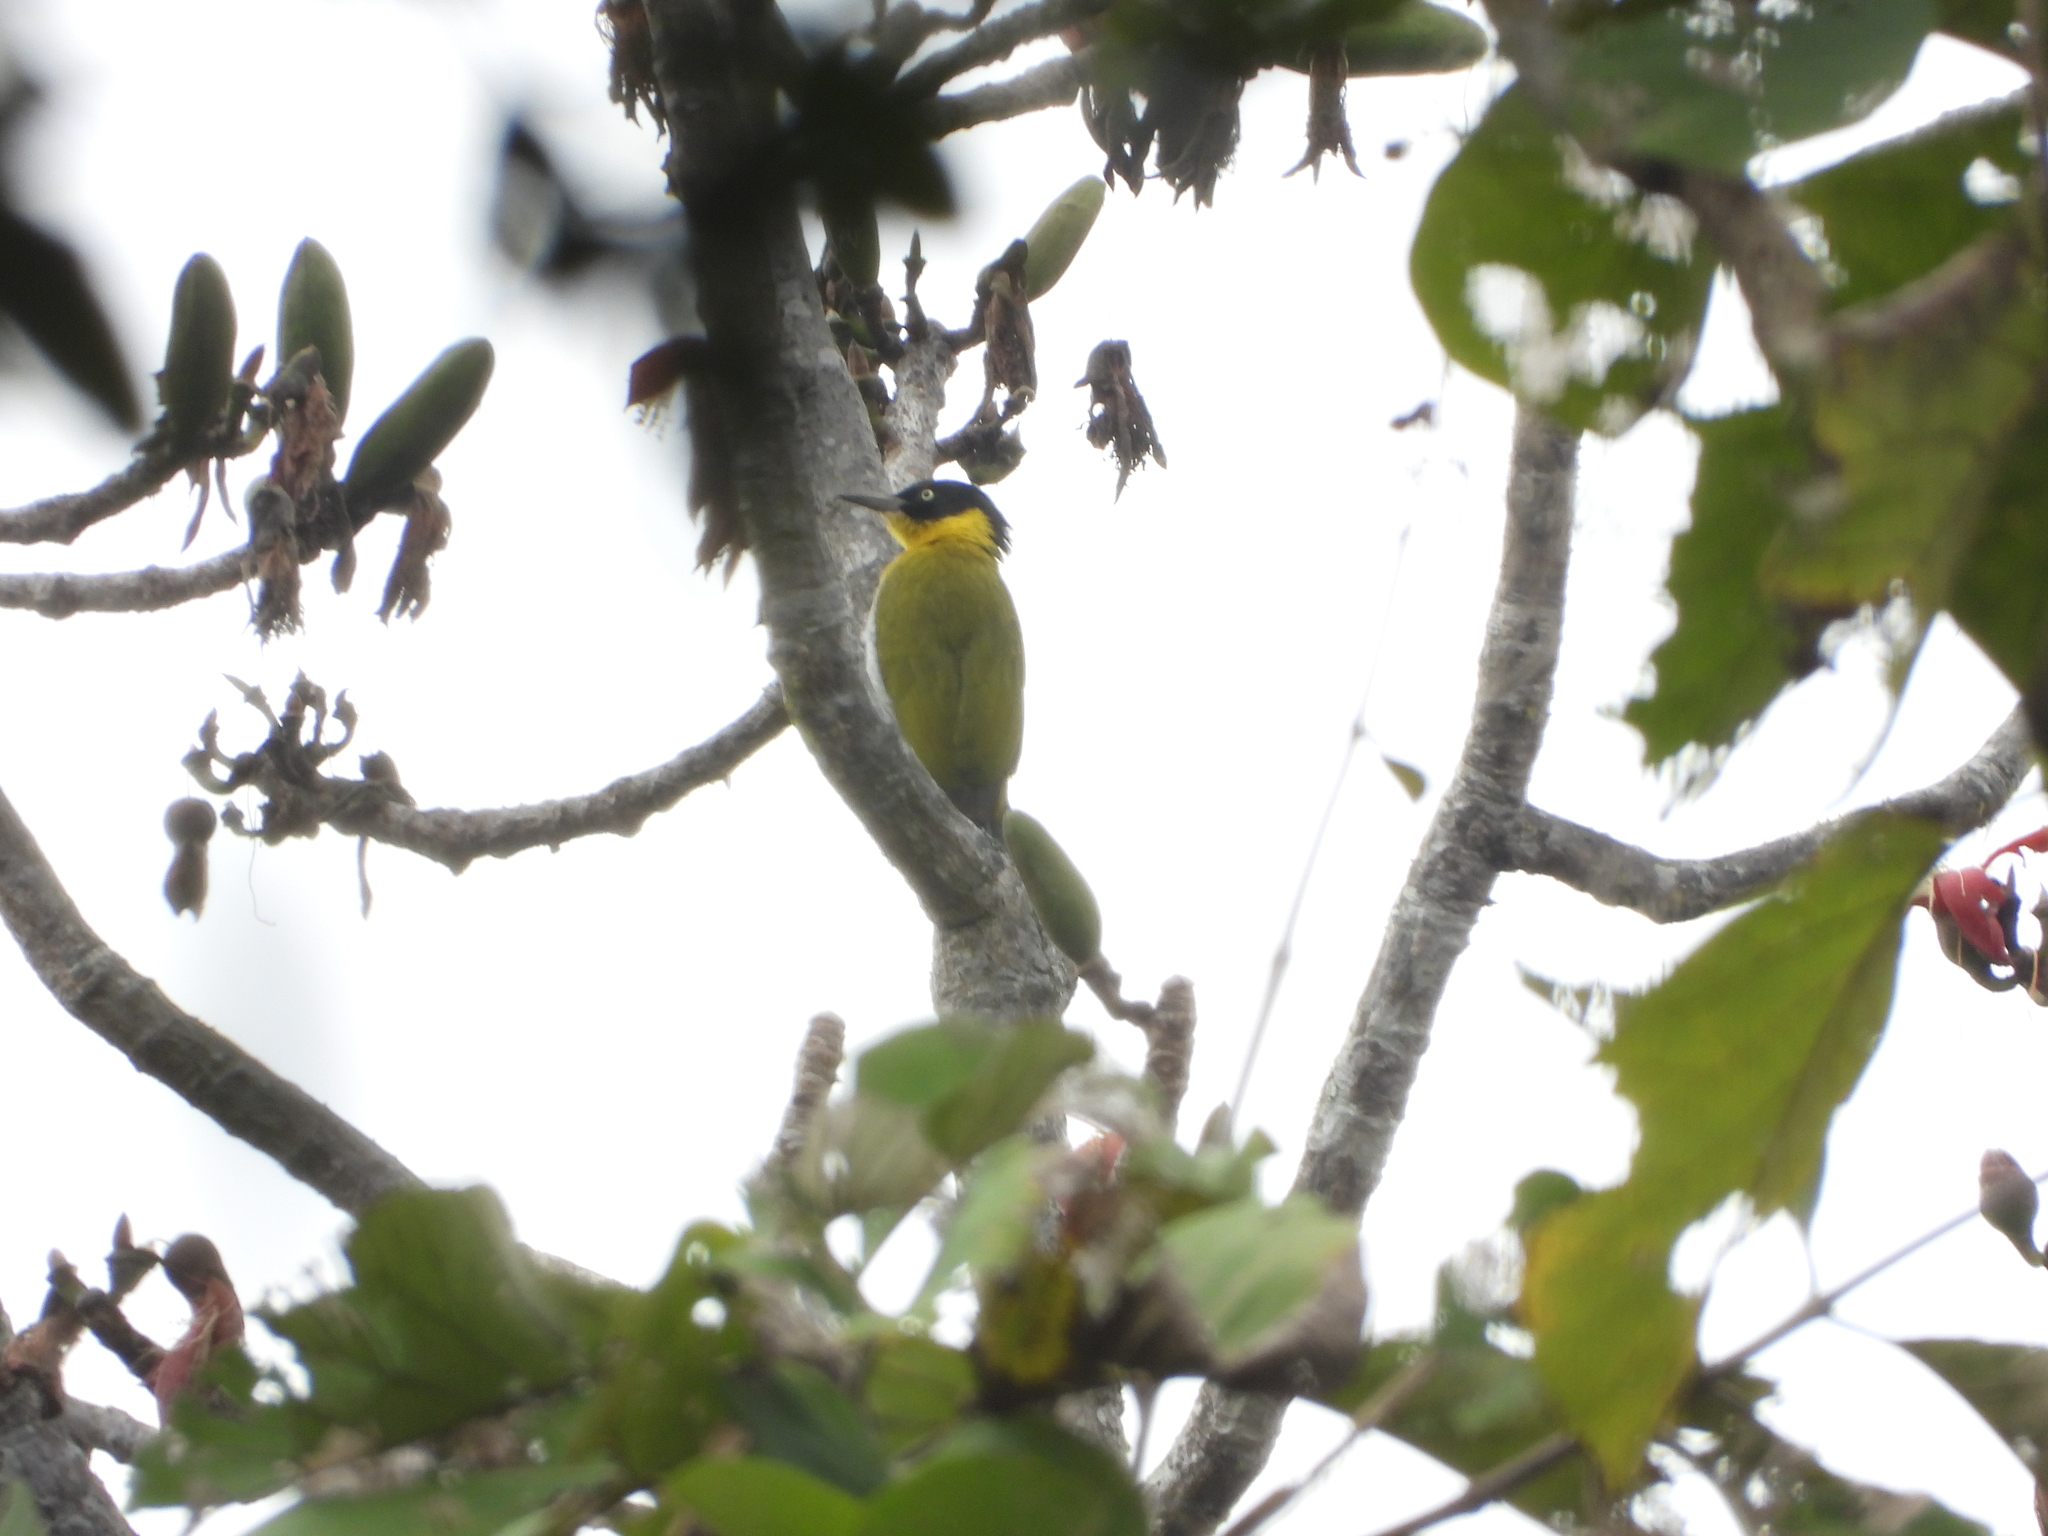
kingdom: Animalia
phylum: Chordata
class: Aves
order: Piciformes
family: Picidae
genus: Picus
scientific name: Picus erythropygius
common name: Black-headed woodpecker
